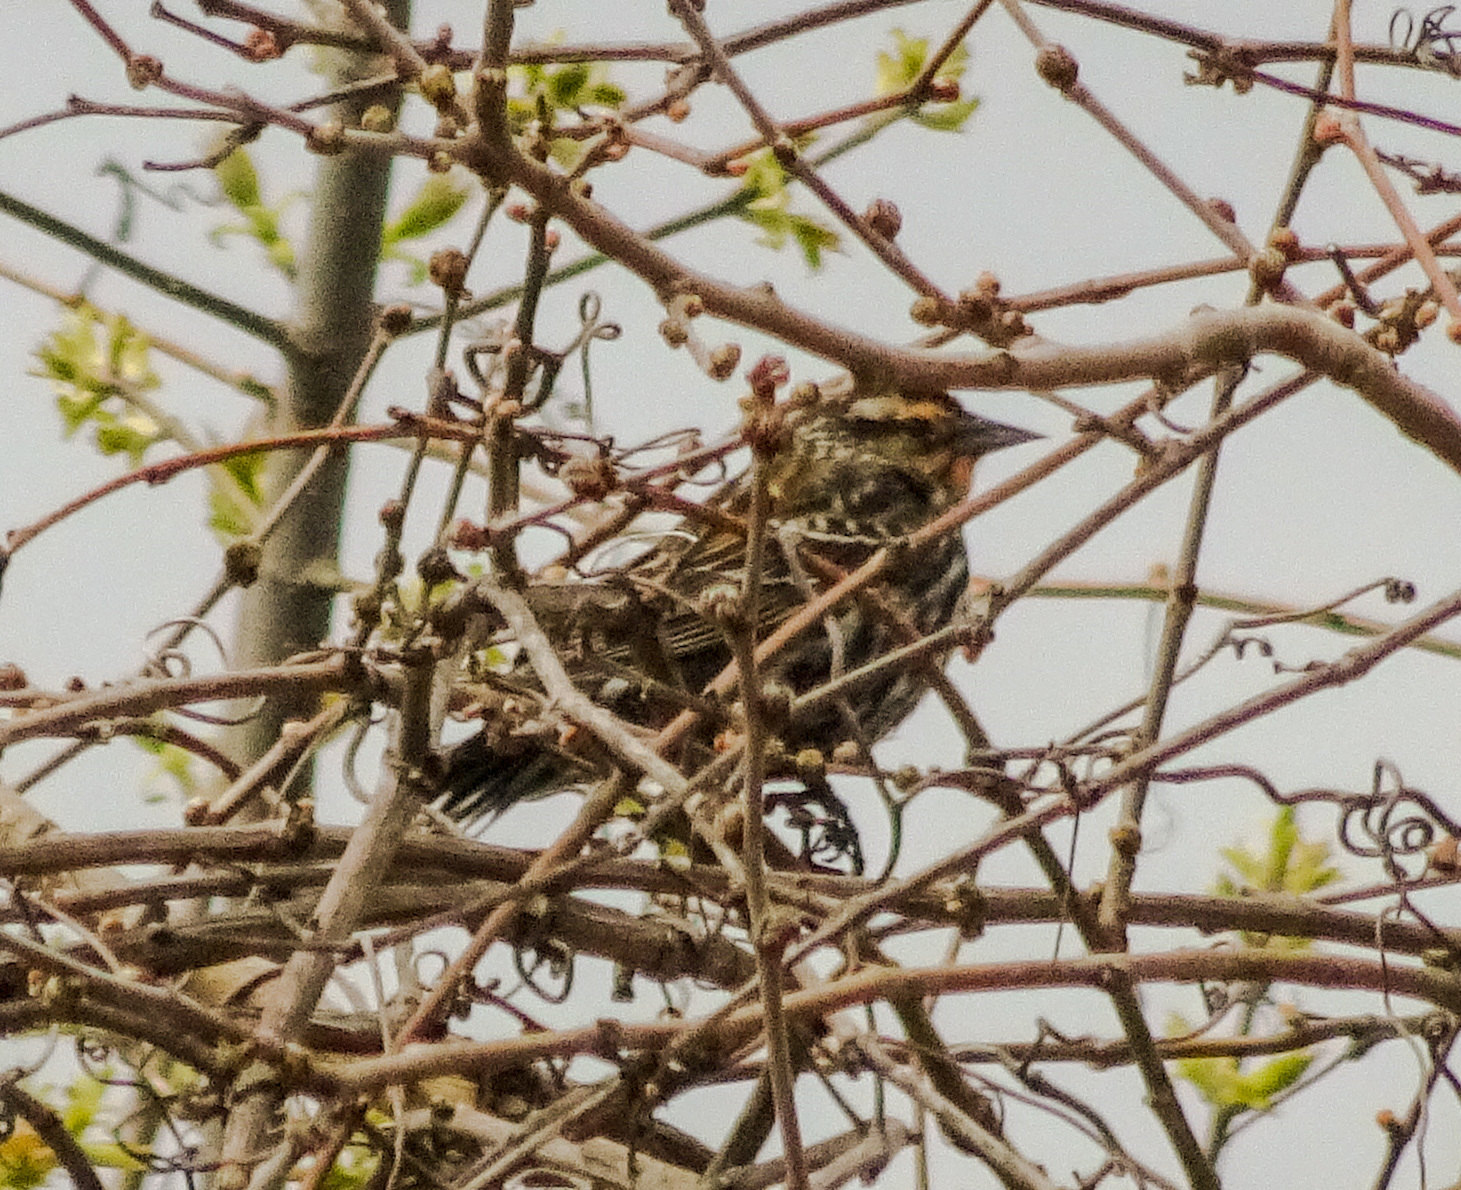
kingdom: Animalia
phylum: Chordata
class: Aves
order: Passeriformes
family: Icteridae
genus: Agelaius
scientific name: Agelaius phoeniceus
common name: Red-winged blackbird
